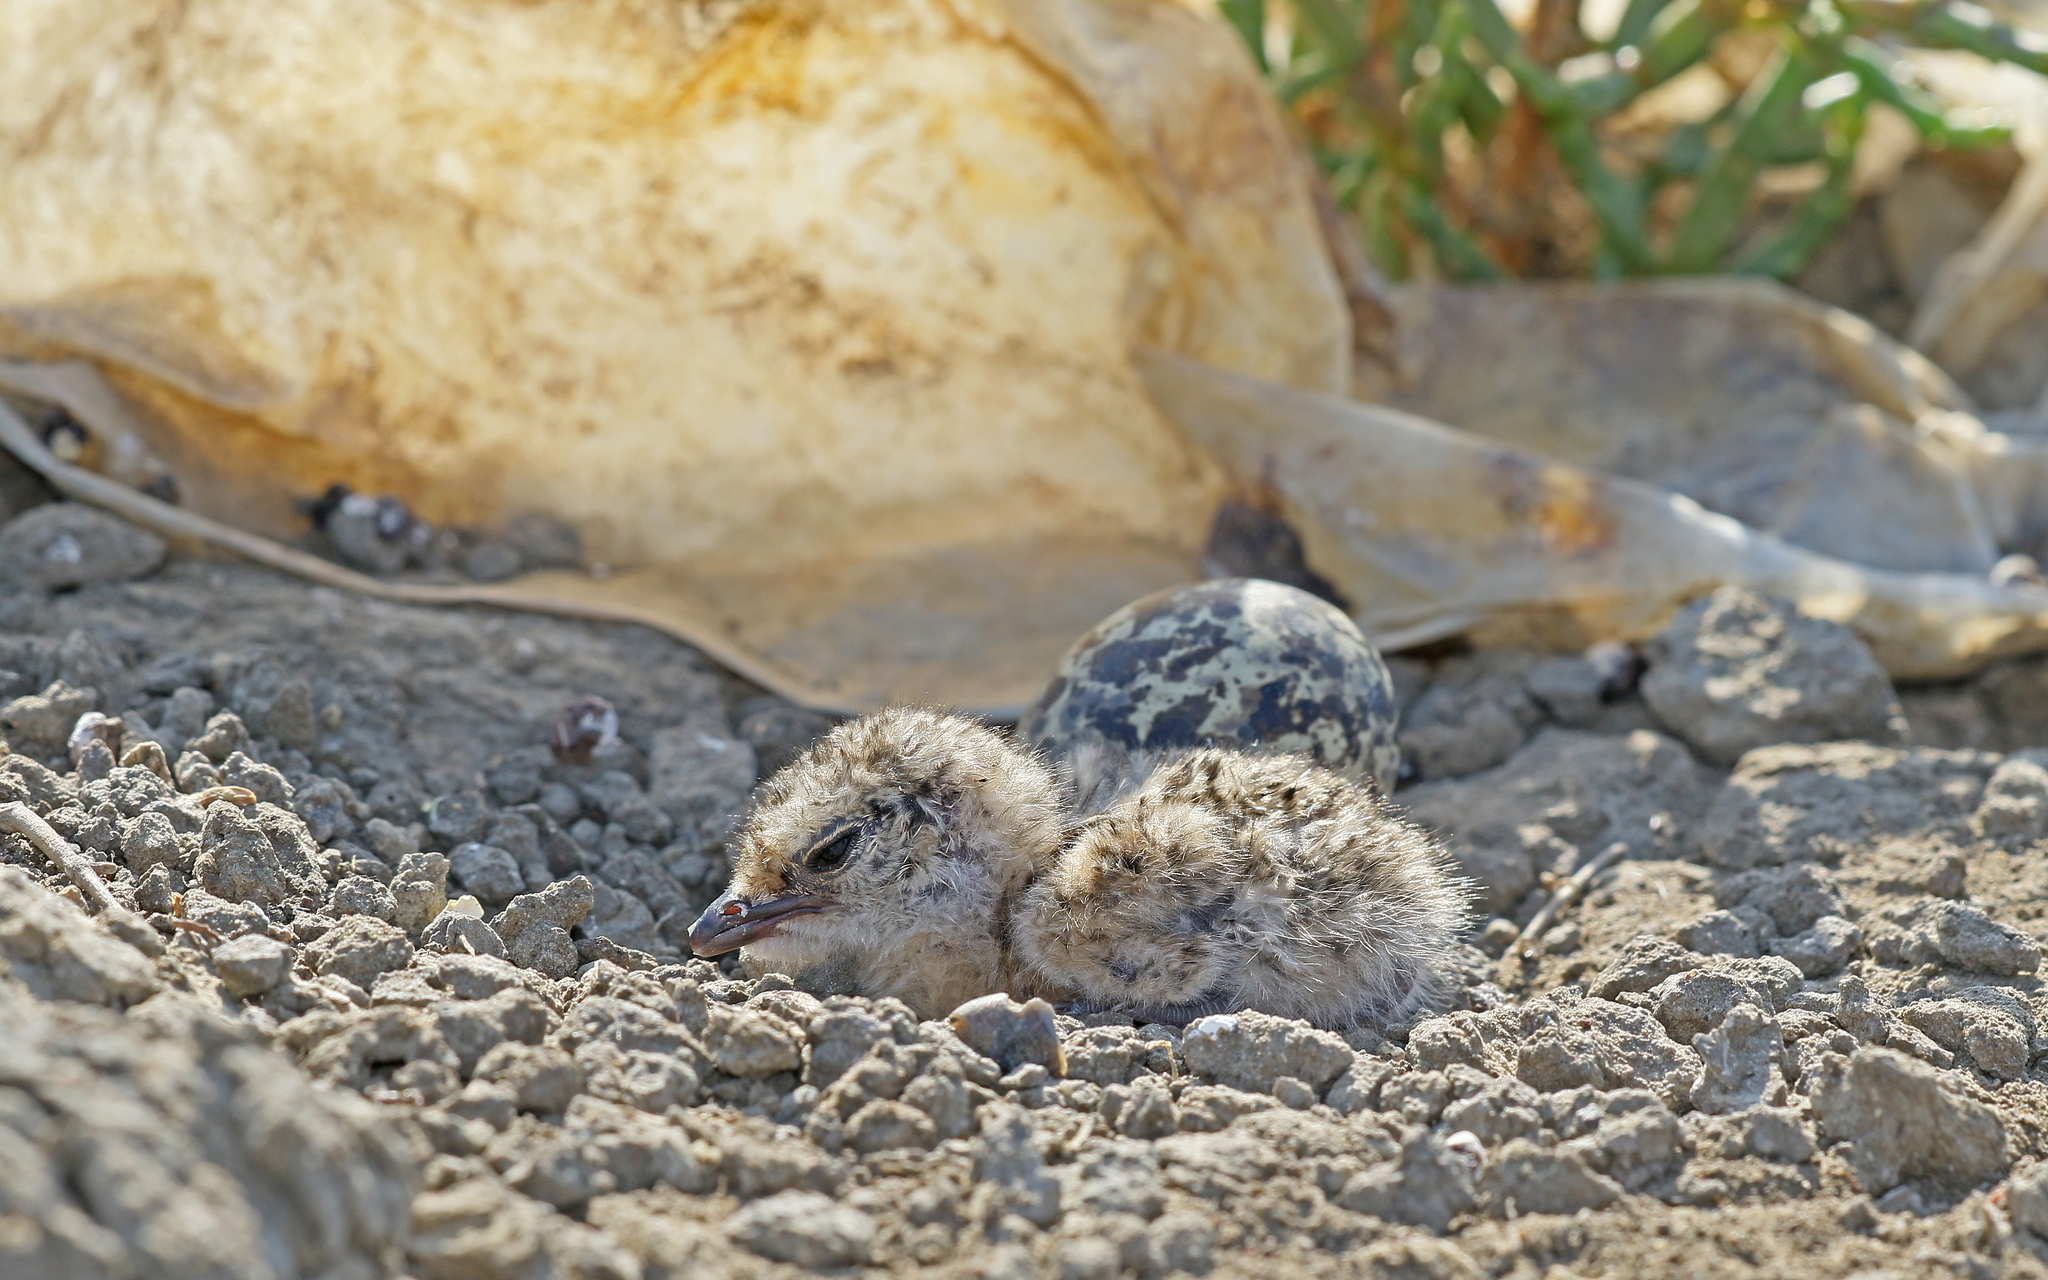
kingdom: Animalia
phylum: Chordata
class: Aves
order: Charadriiformes
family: Glareolidae
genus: Glareola
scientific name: Glareola pratincola
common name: Collared pratincole
